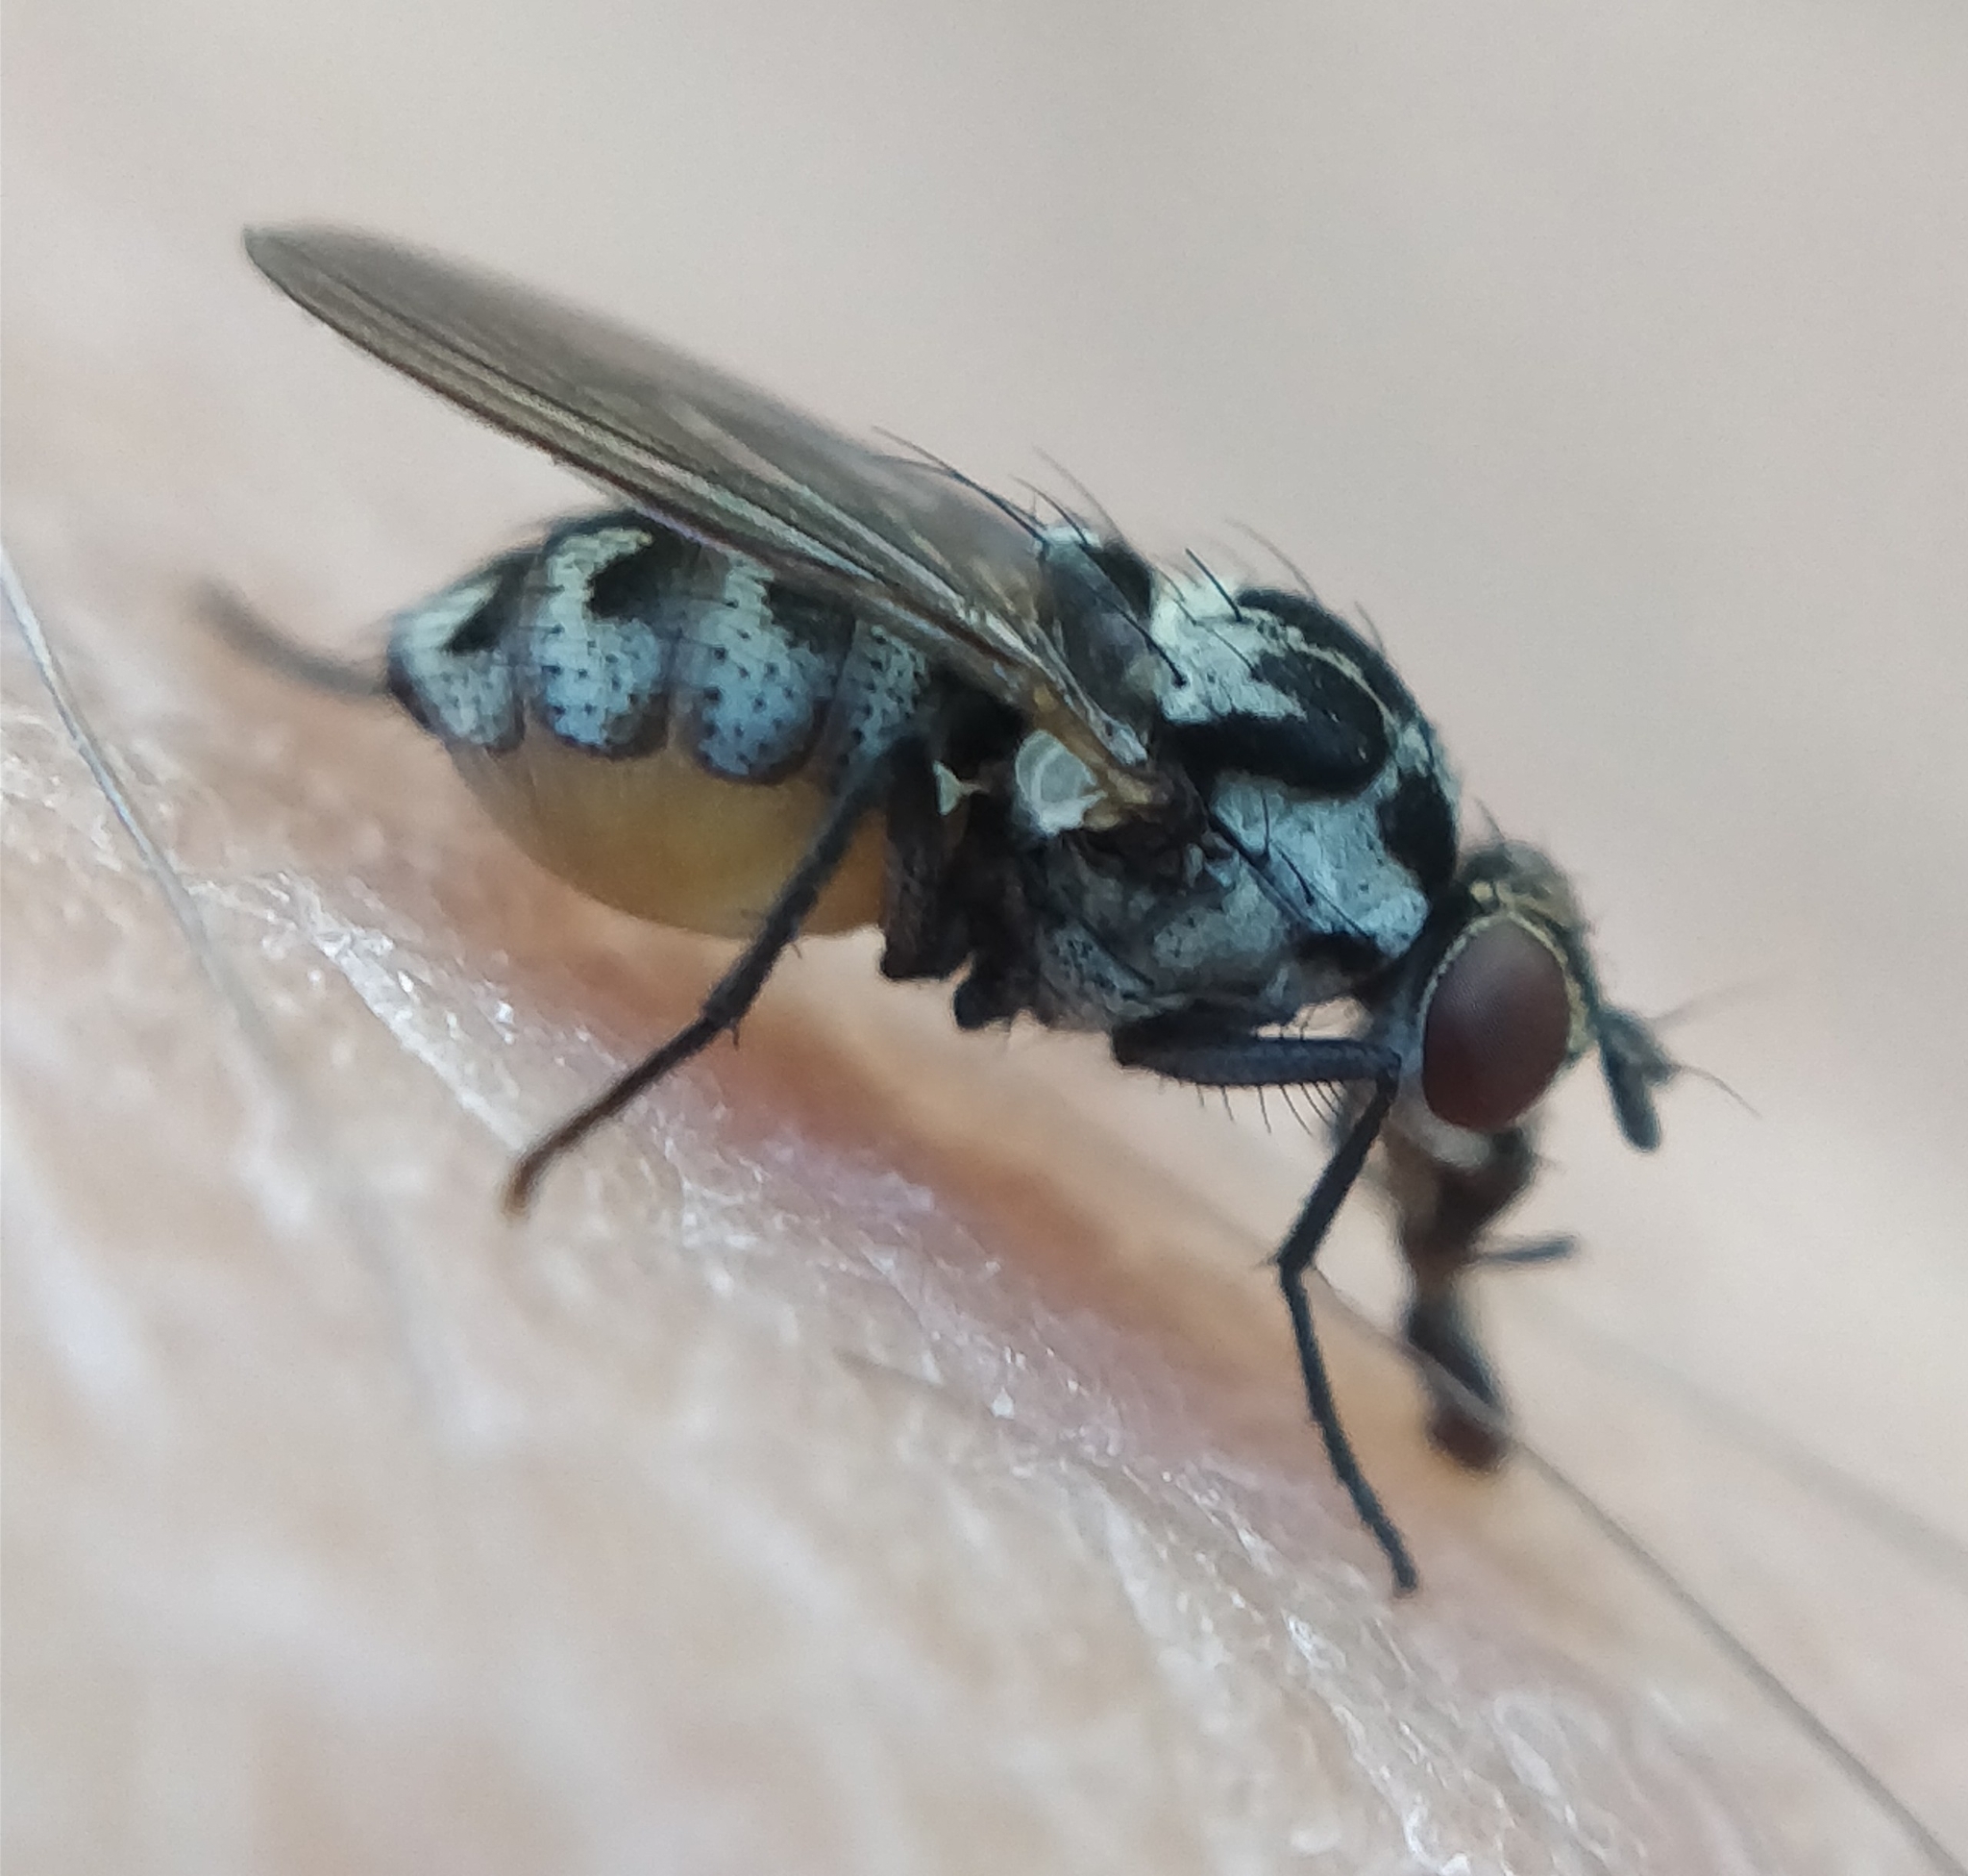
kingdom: Animalia
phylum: Arthropoda
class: Insecta
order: Diptera
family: Anthomyiidae
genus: Anthomyia
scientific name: Anthomyia quinquemaculata
